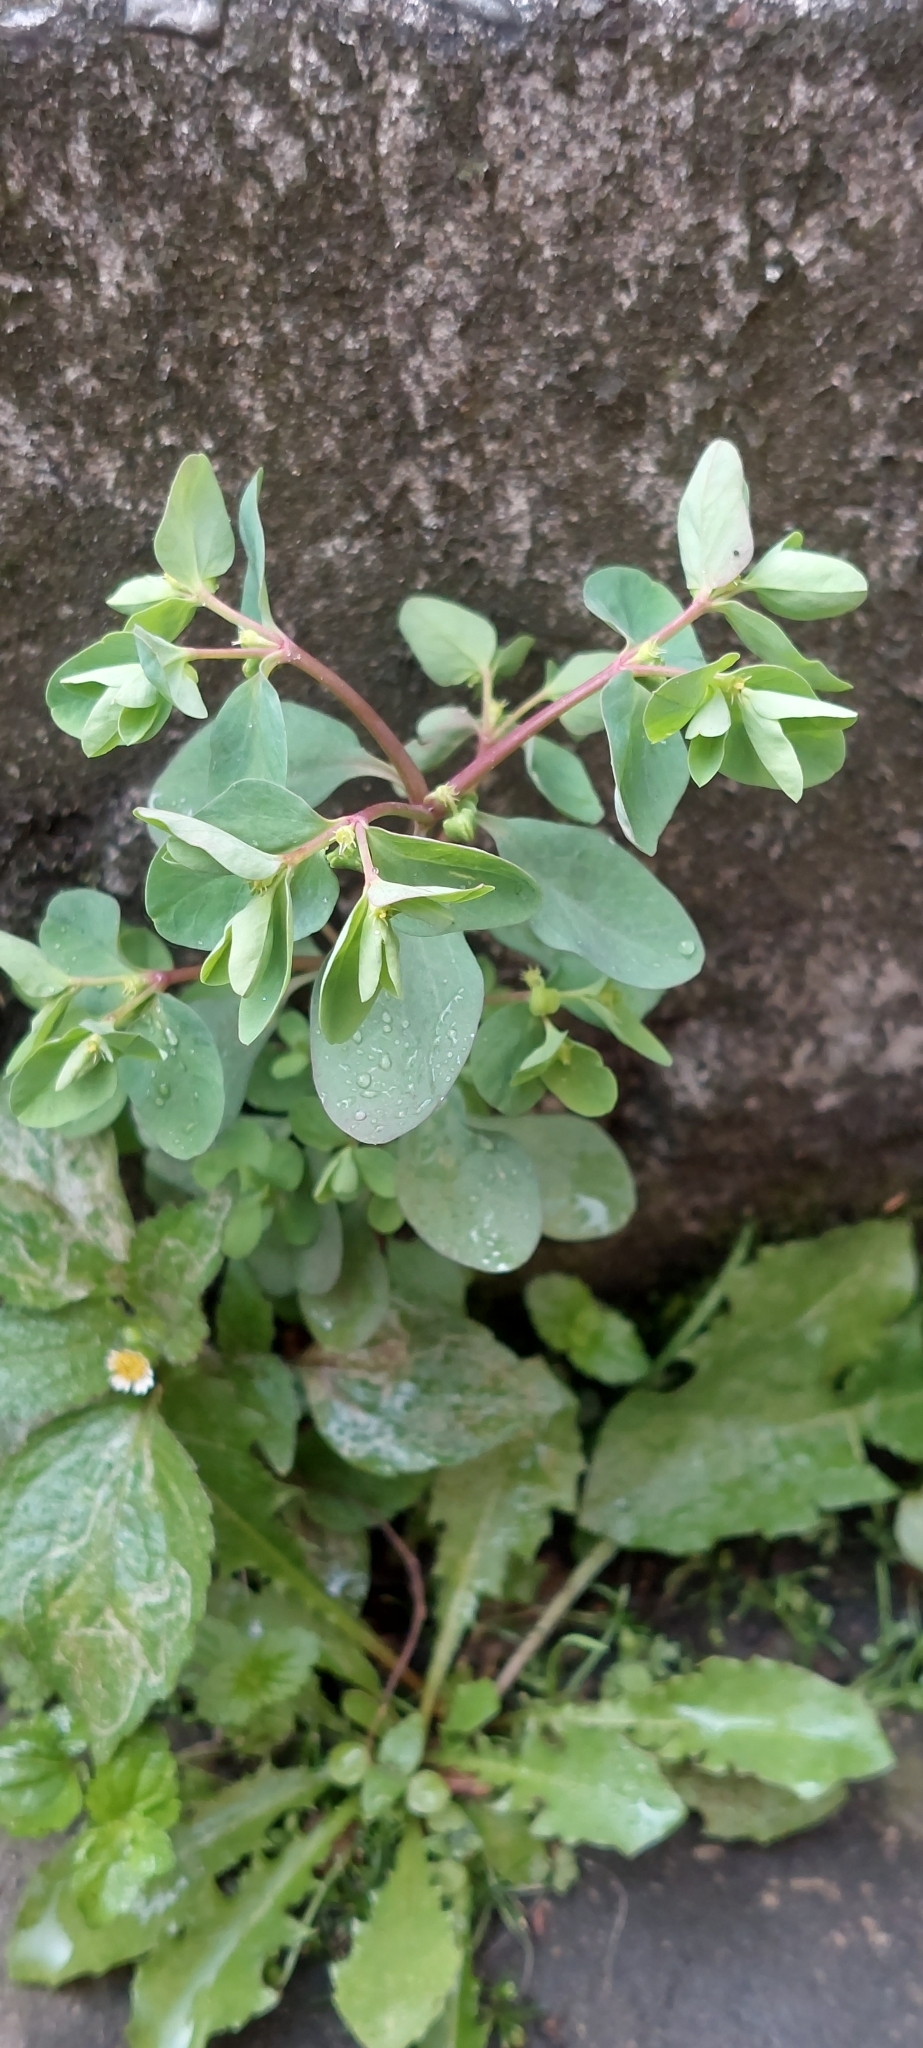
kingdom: Plantae
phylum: Tracheophyta
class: Magnoliopsida
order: Malpighiales
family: Euphorbiaceae
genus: Euphorbia
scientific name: Euphorbia peplus
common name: Petty spurge
